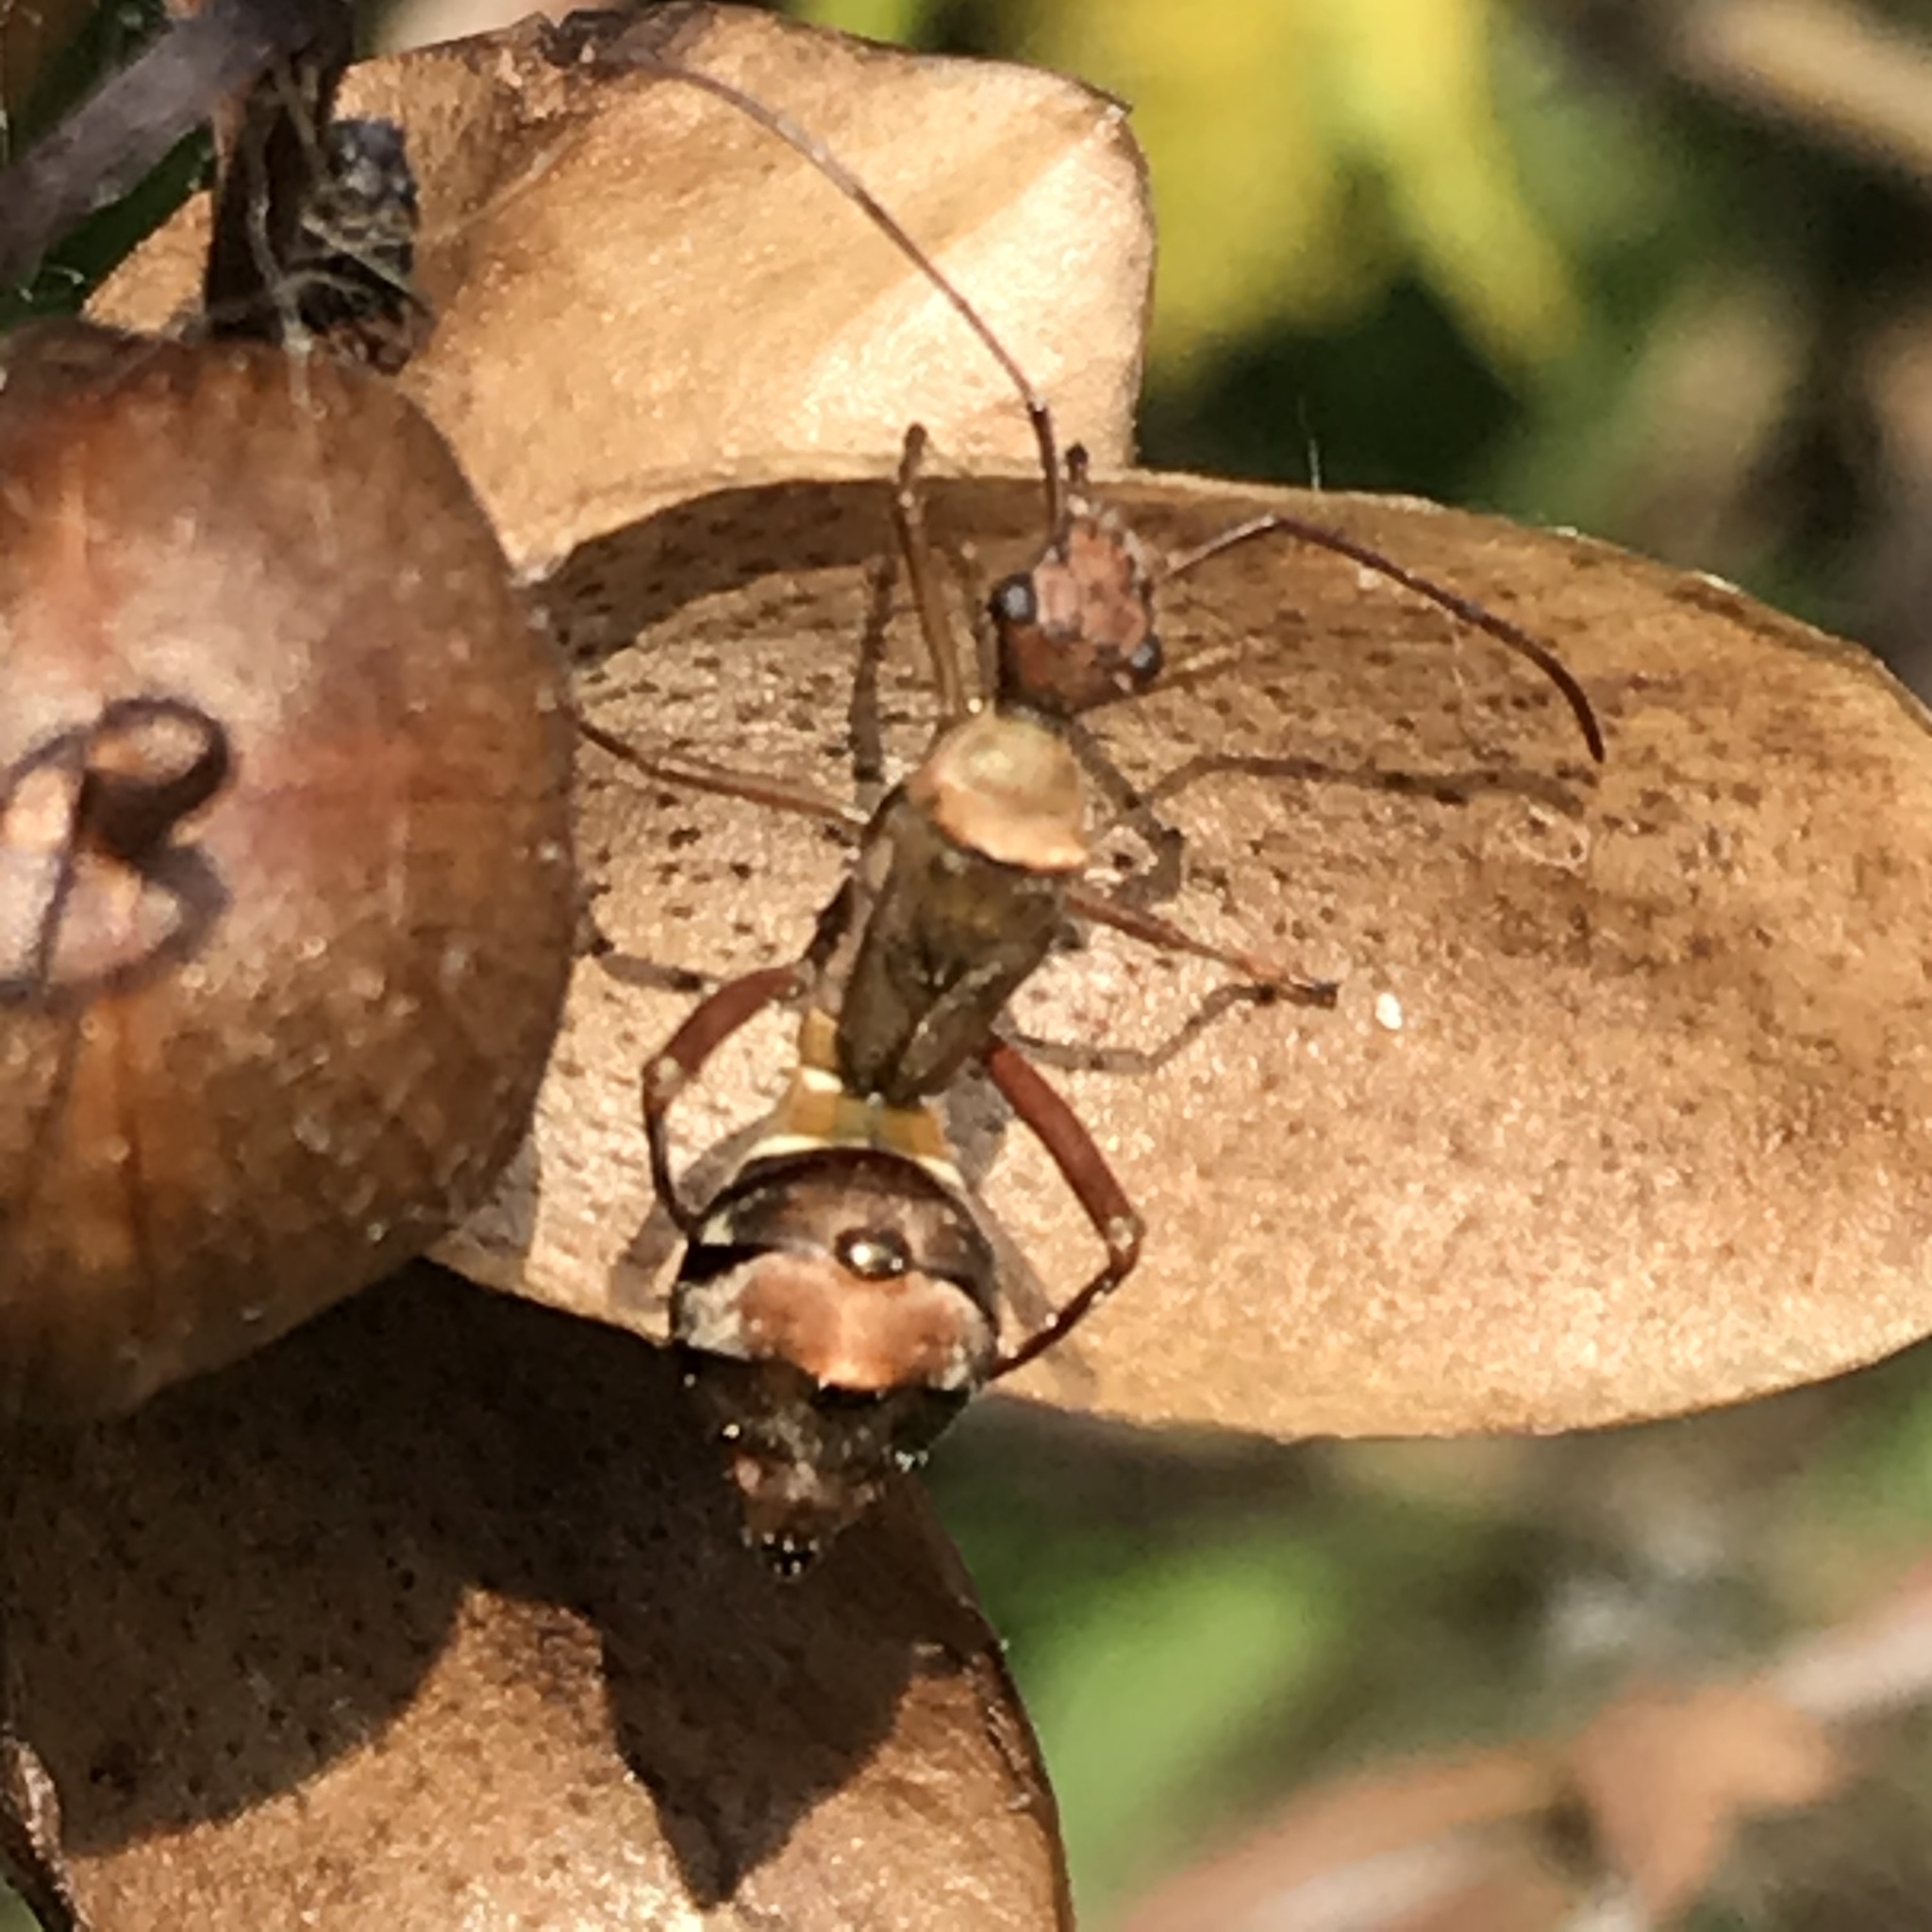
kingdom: Animalia
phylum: Arthropoda
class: Insecta
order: Hemiptera
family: Alydidae
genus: Hyalymenus
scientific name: Hyalymenus tarsatus
